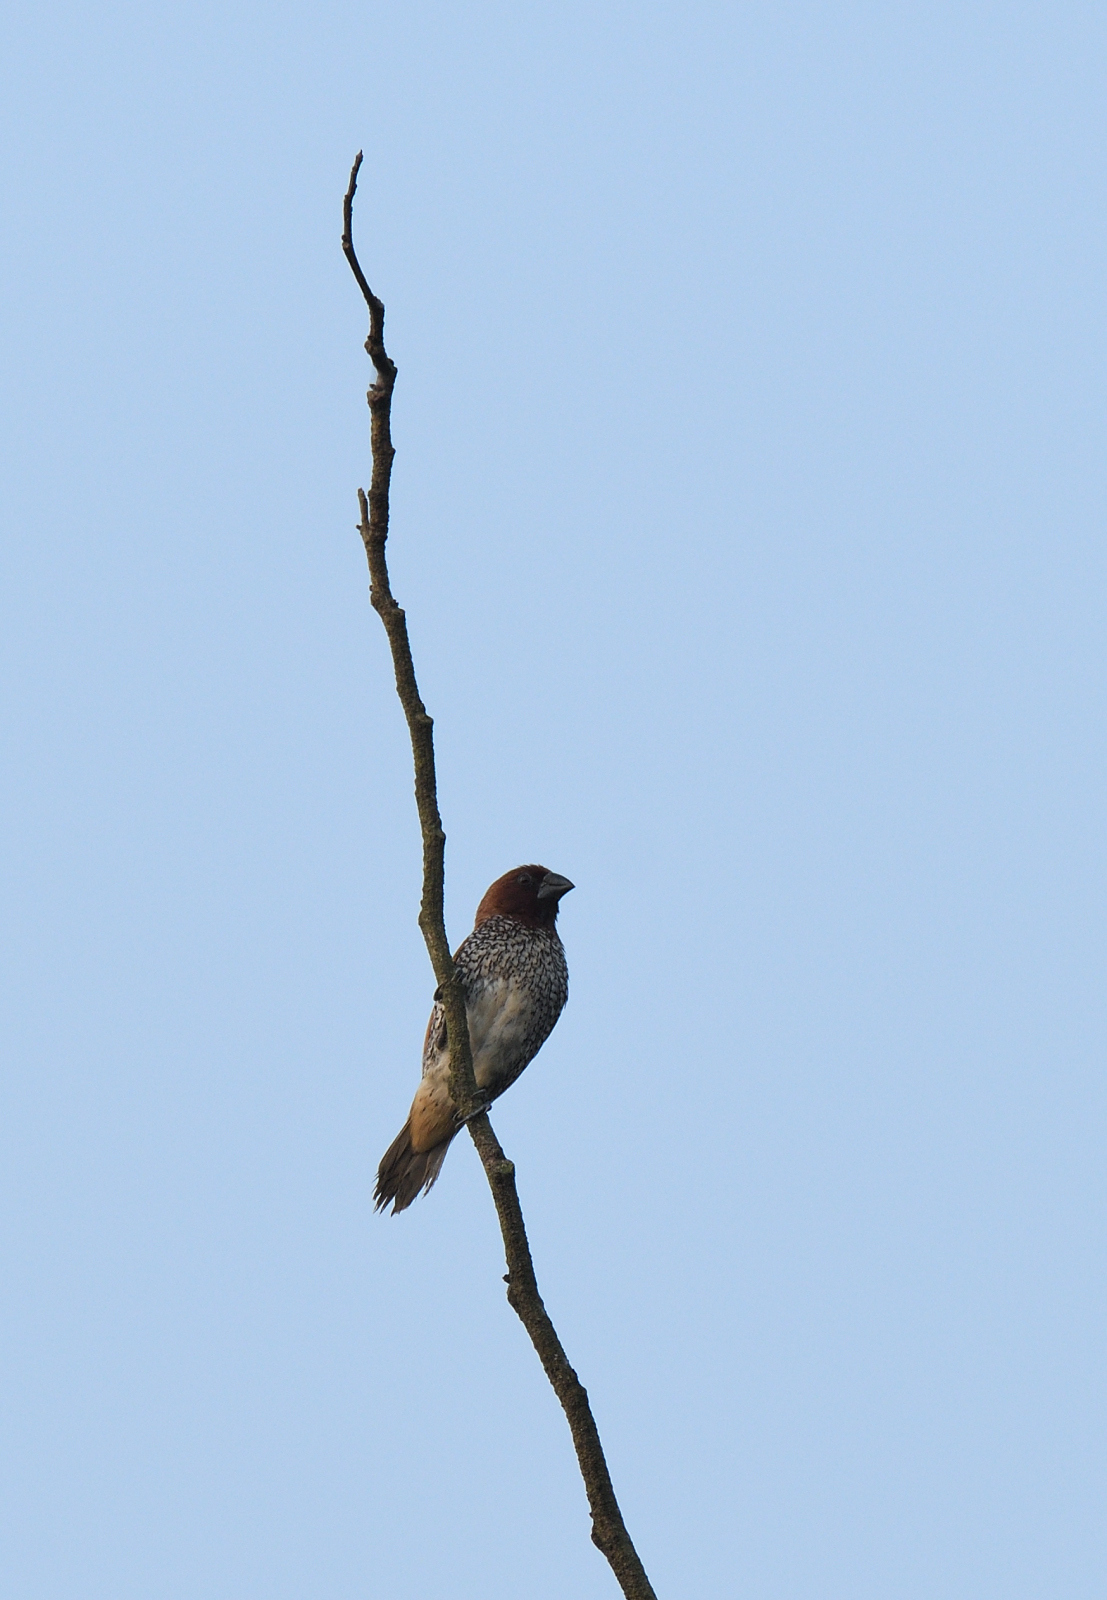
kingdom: Animalia
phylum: Chordata
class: Aves
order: Passeriformes
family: Estrildidae
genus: Lonchura
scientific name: Lonchura punctulata
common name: Scaly-breasted munia
